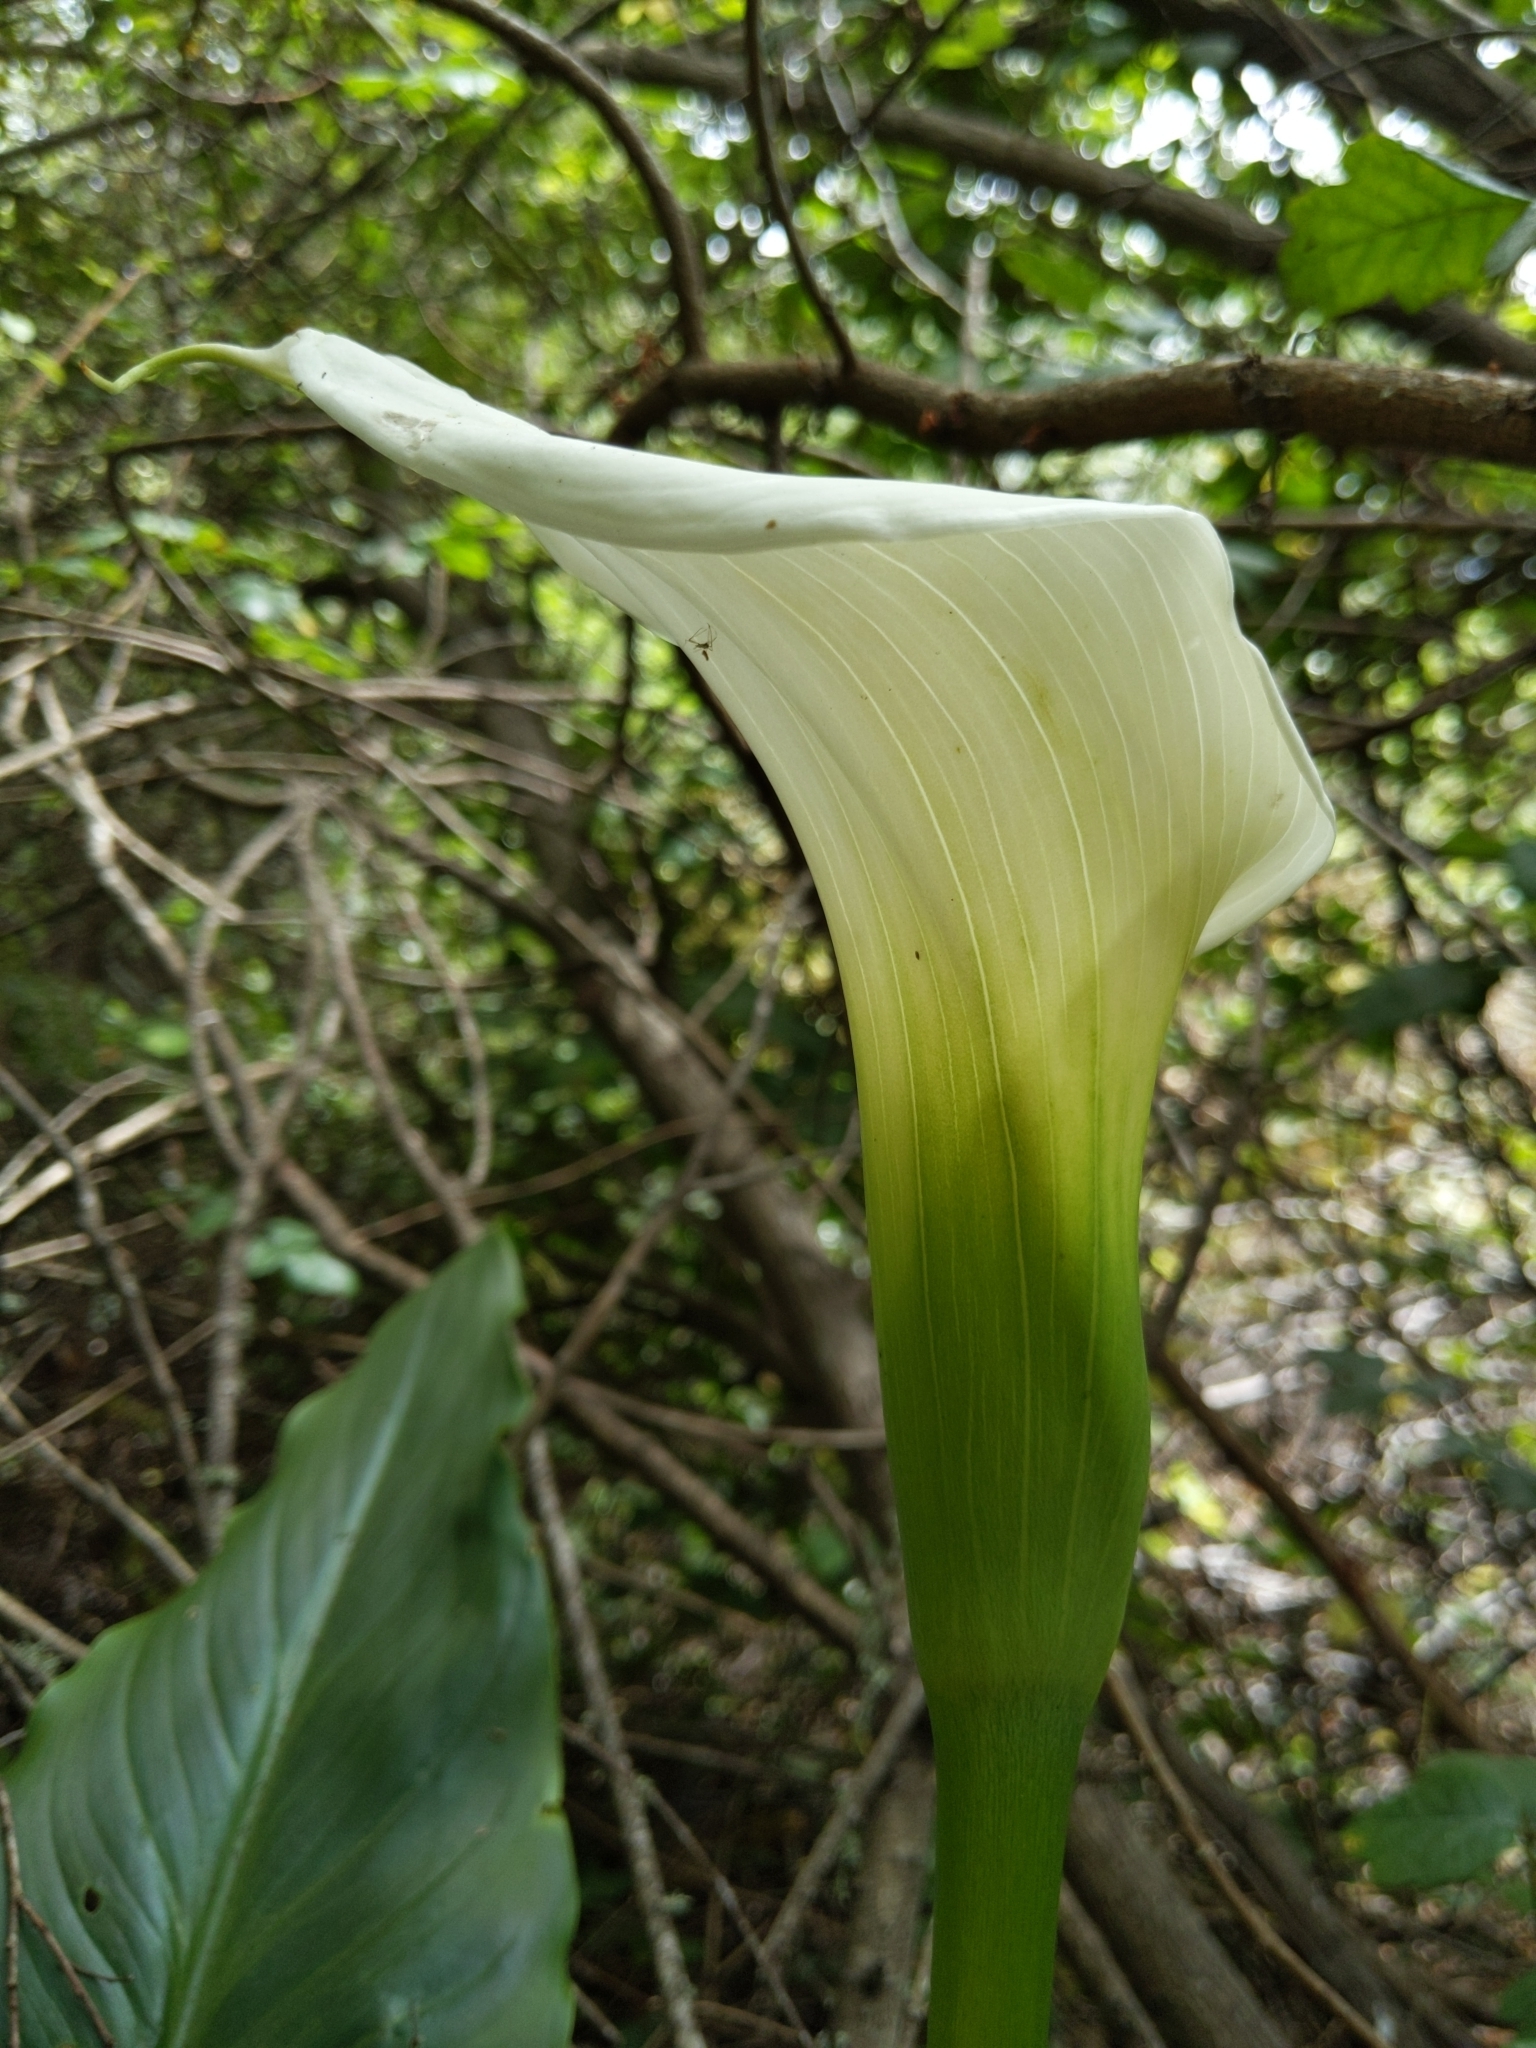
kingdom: Plantae
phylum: Tracheophyta
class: Liliopsida
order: Alismatales
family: Araceae
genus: Zantedeschia
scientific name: Zantedeschia aethiopica
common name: Altar-lily
